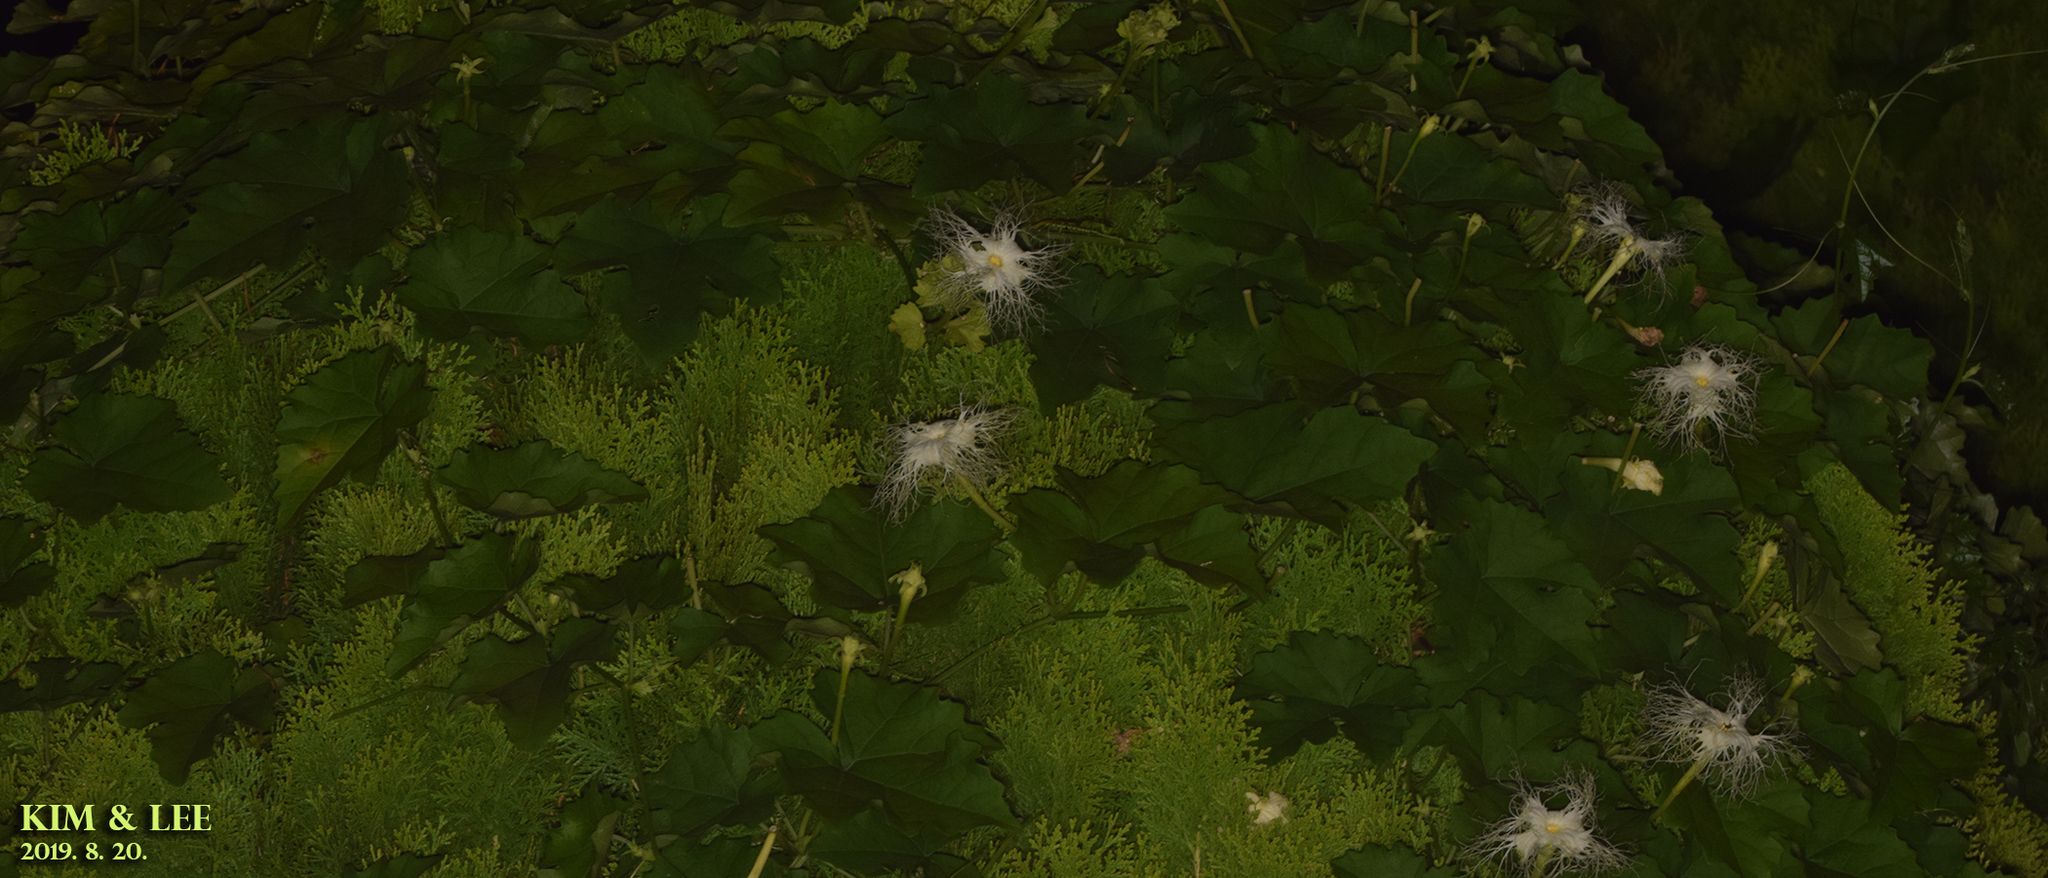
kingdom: Plantae
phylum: Tracheophyta
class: Magnoliopsida
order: Cucurbitales
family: Cucurbitaceae
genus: Trichosanthes
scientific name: Trichosanthes kirilowii
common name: Chinese-cucumber
